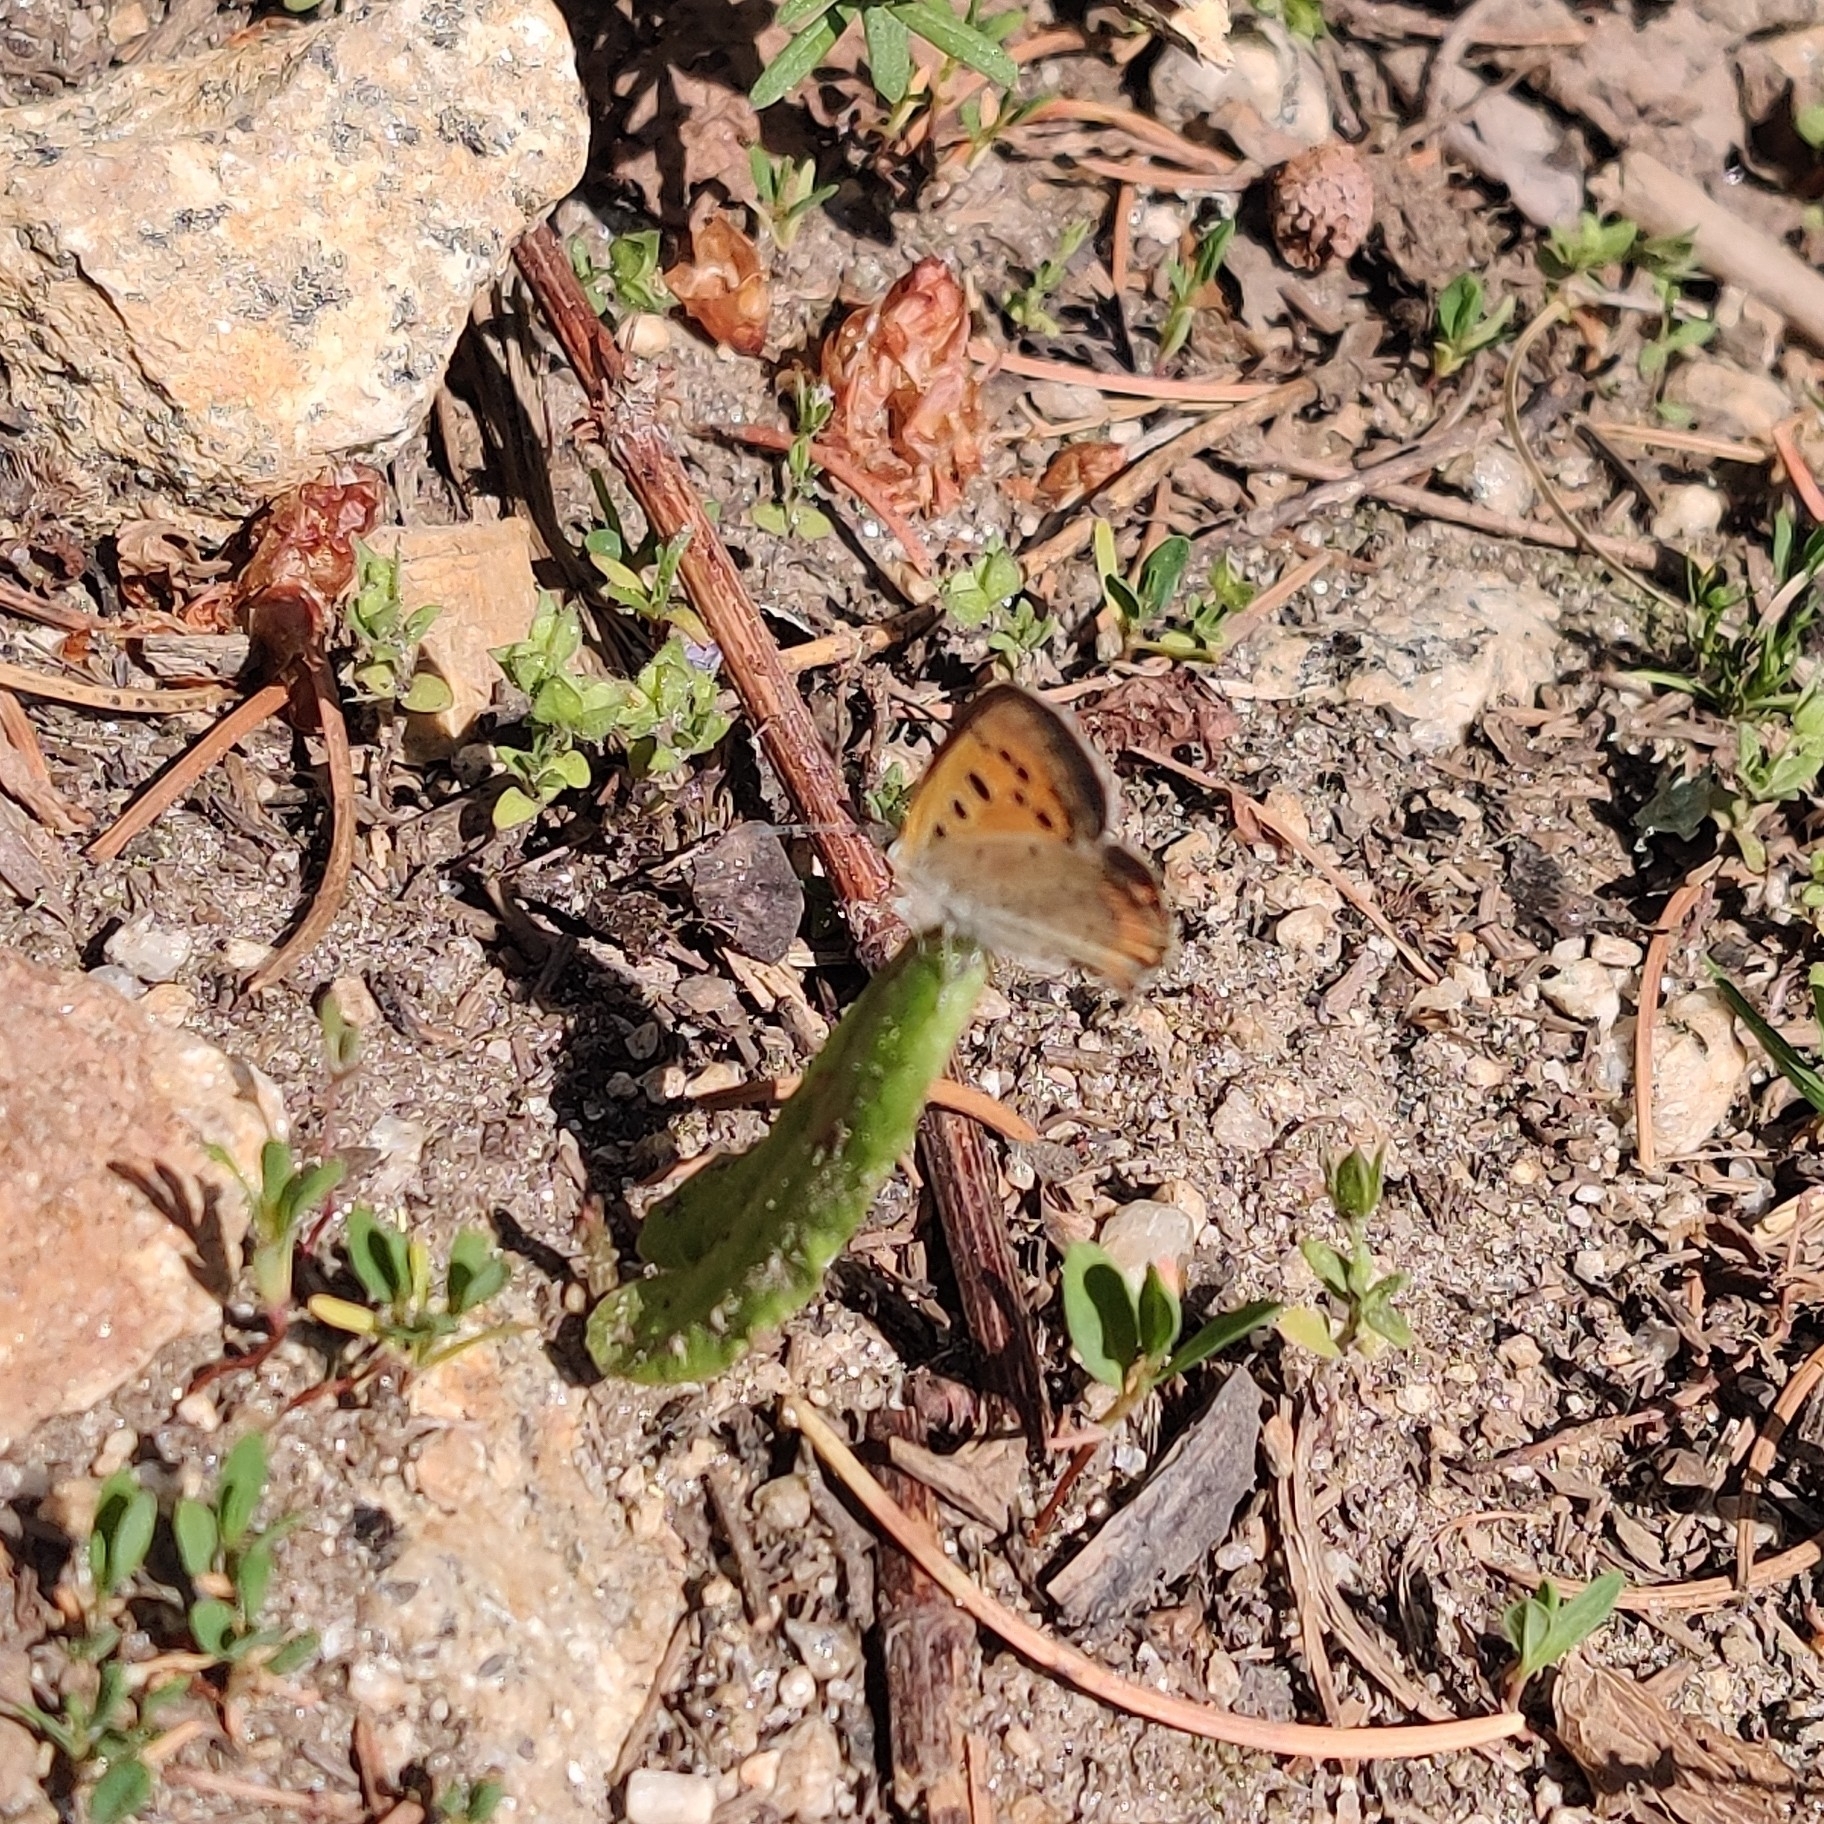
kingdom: Animalia
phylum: Arthropoda
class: Insecta
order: Lepidoptera
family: Lycaenidae
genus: Lycaena
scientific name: Lycaena phlaeas
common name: Small copper
